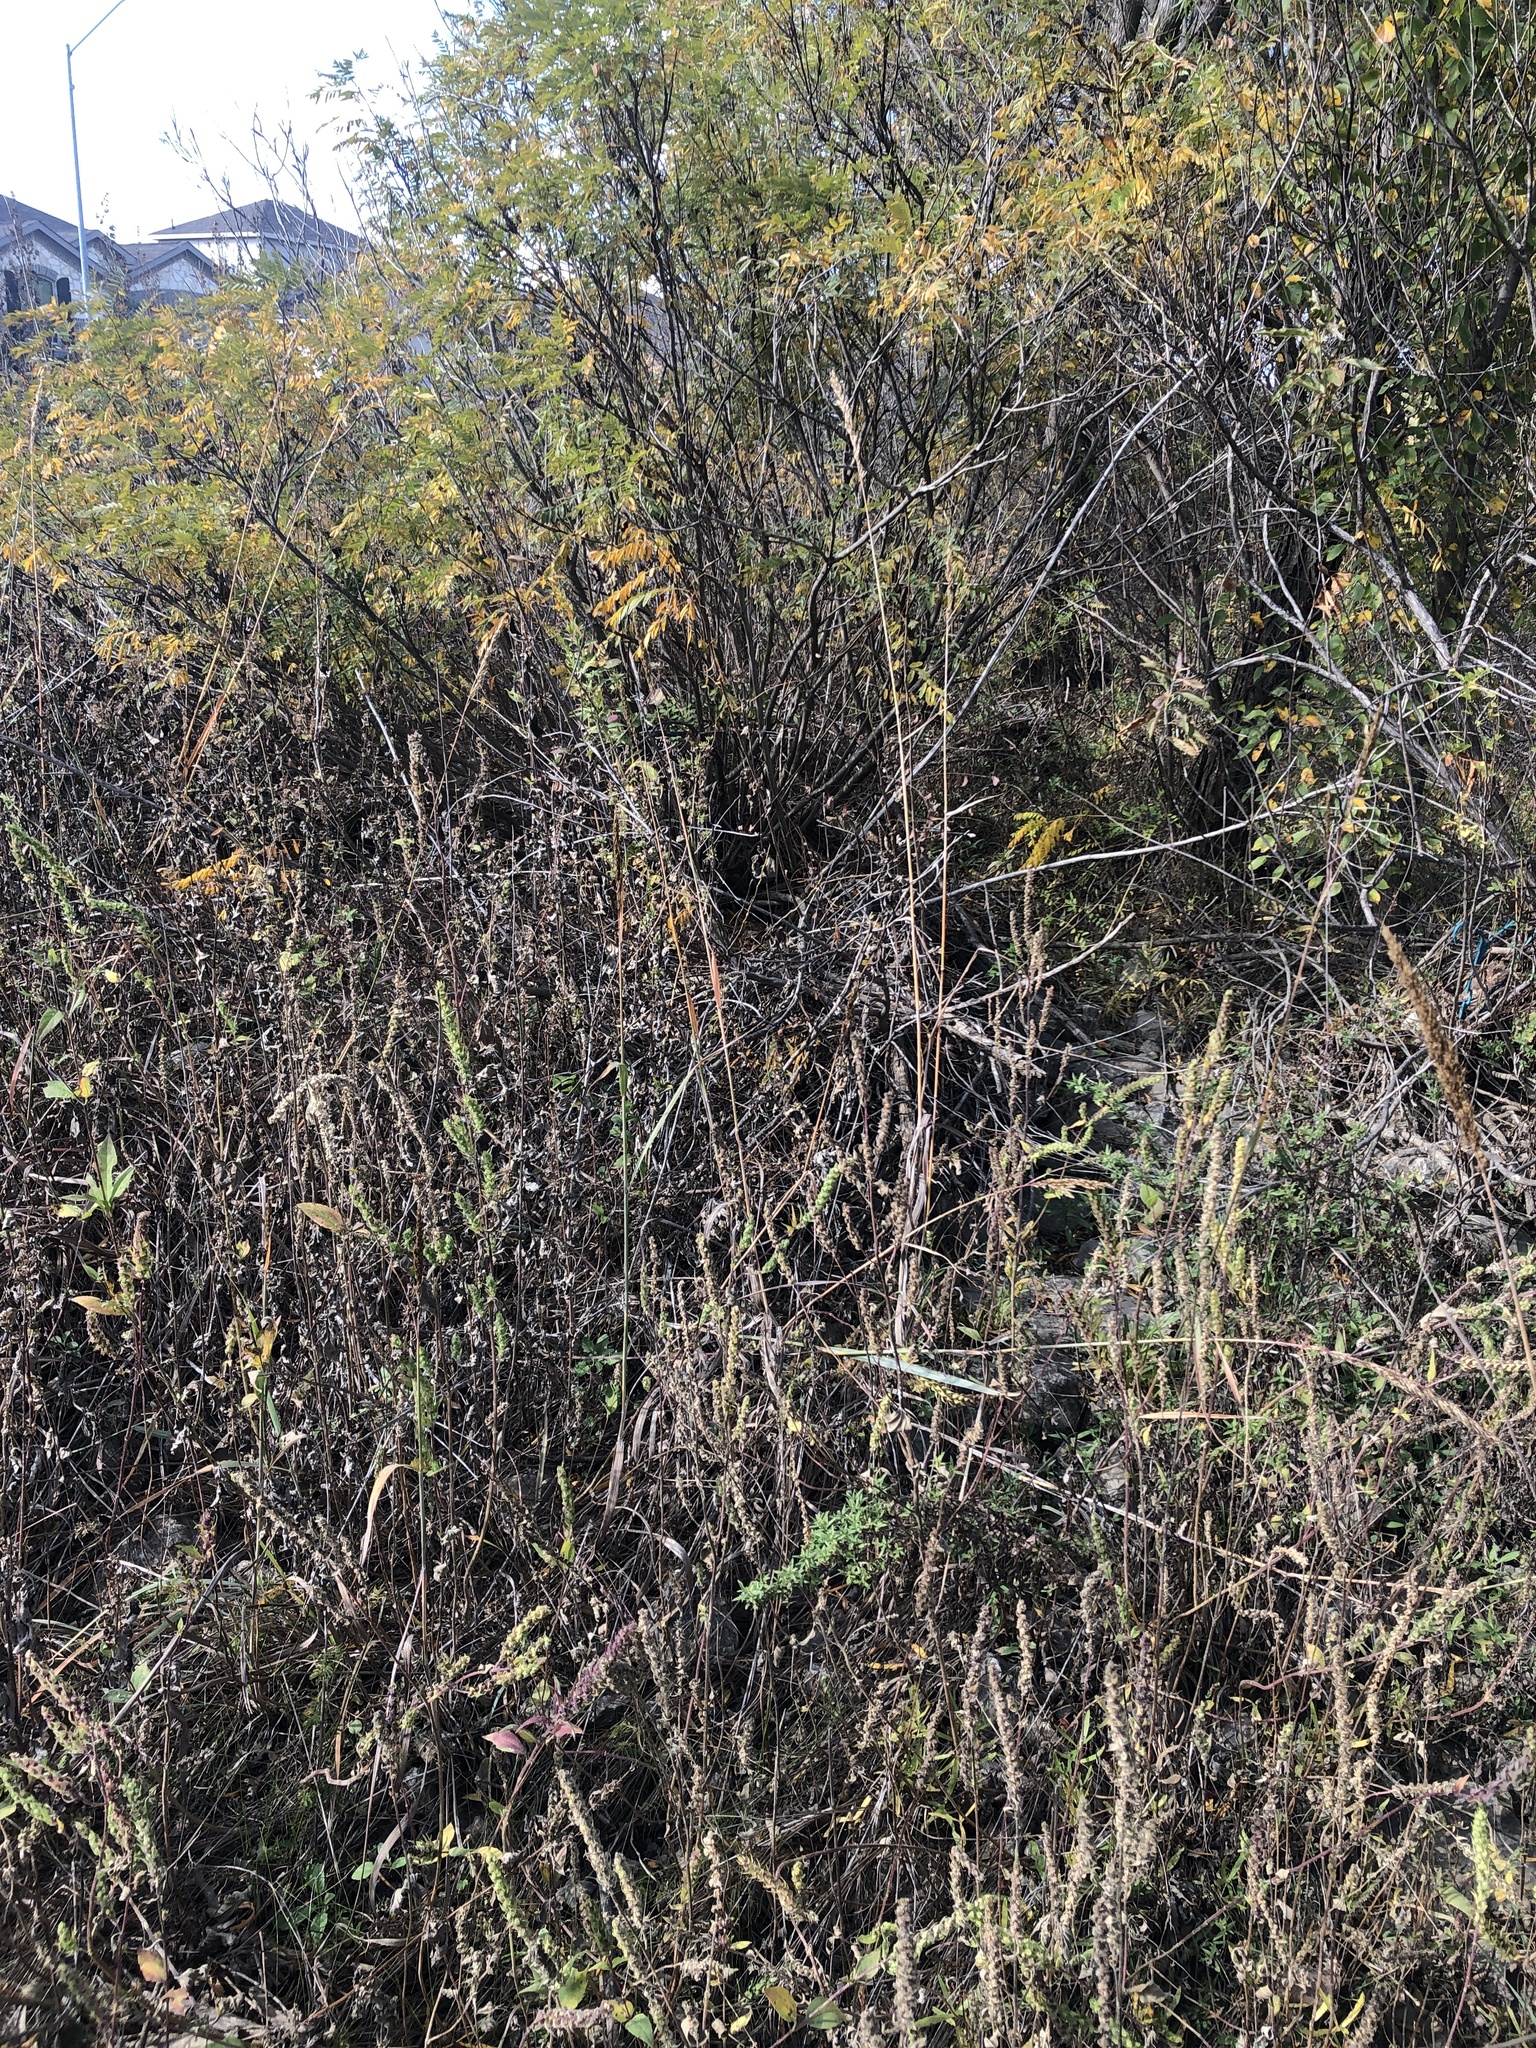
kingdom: Plantae
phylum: Tracheophyta
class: Liliopsida
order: Poales
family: Poaceae
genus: Sorghastrum
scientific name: Sorghastrum nutans
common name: Indian grass
